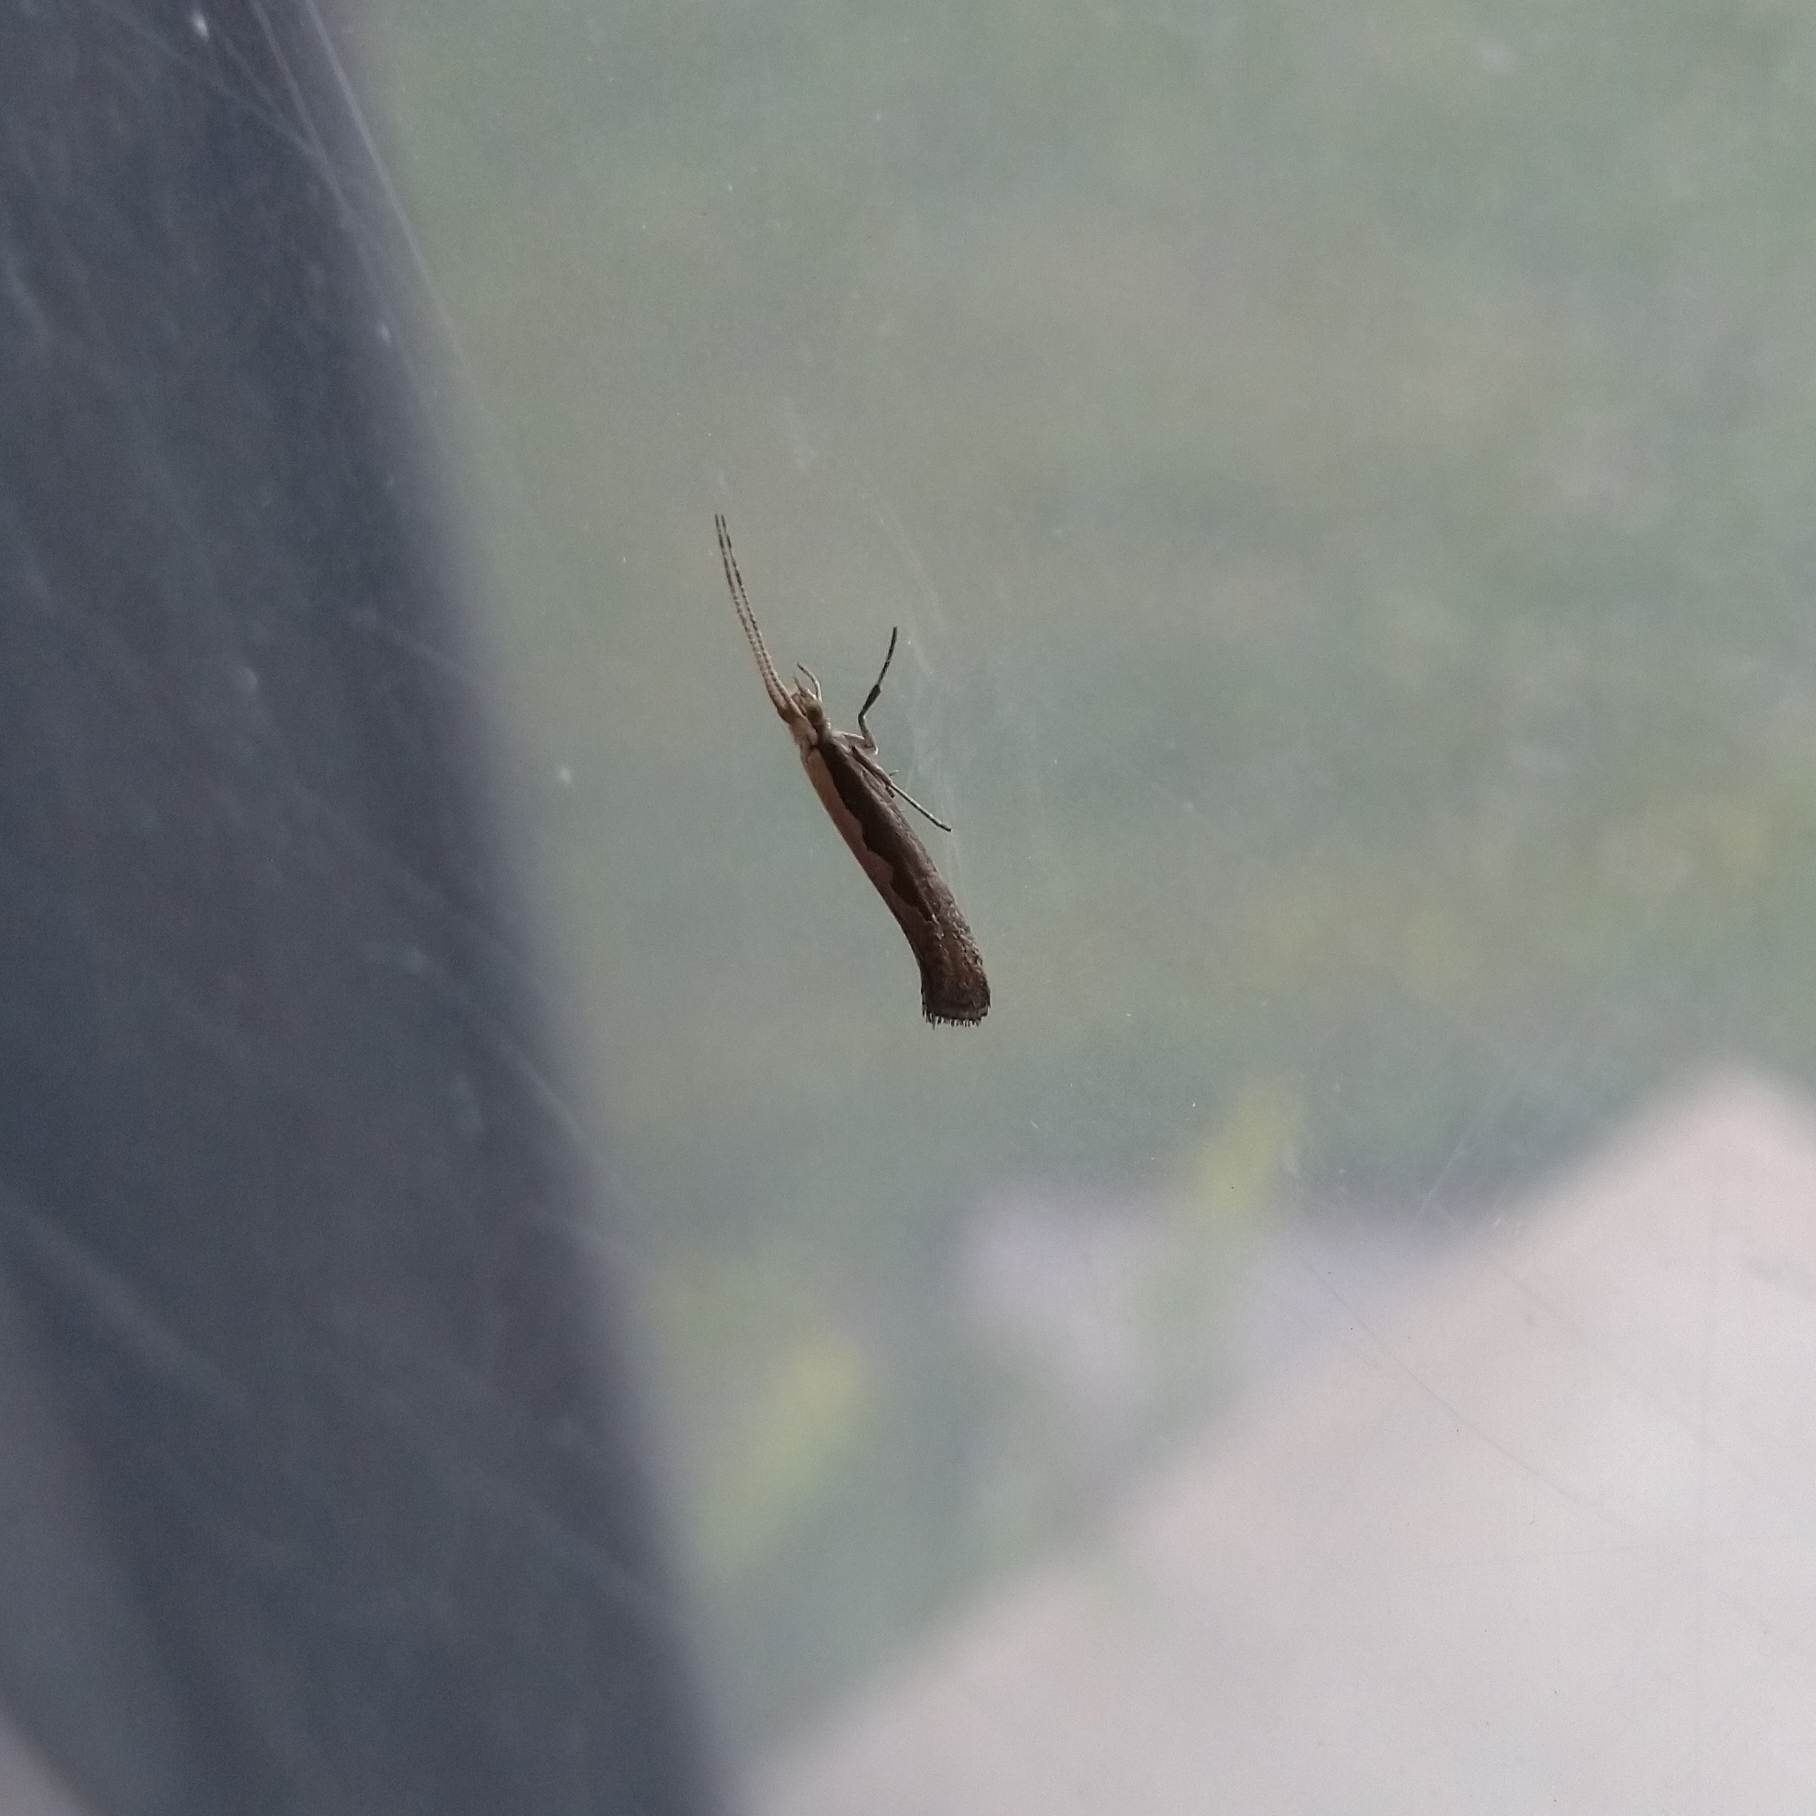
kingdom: Animalia
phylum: Arthropoda
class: Insecta
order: Lepidoptera
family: Plutellidae
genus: Plutella
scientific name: Plutella xylostella
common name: Diamond-back moth
